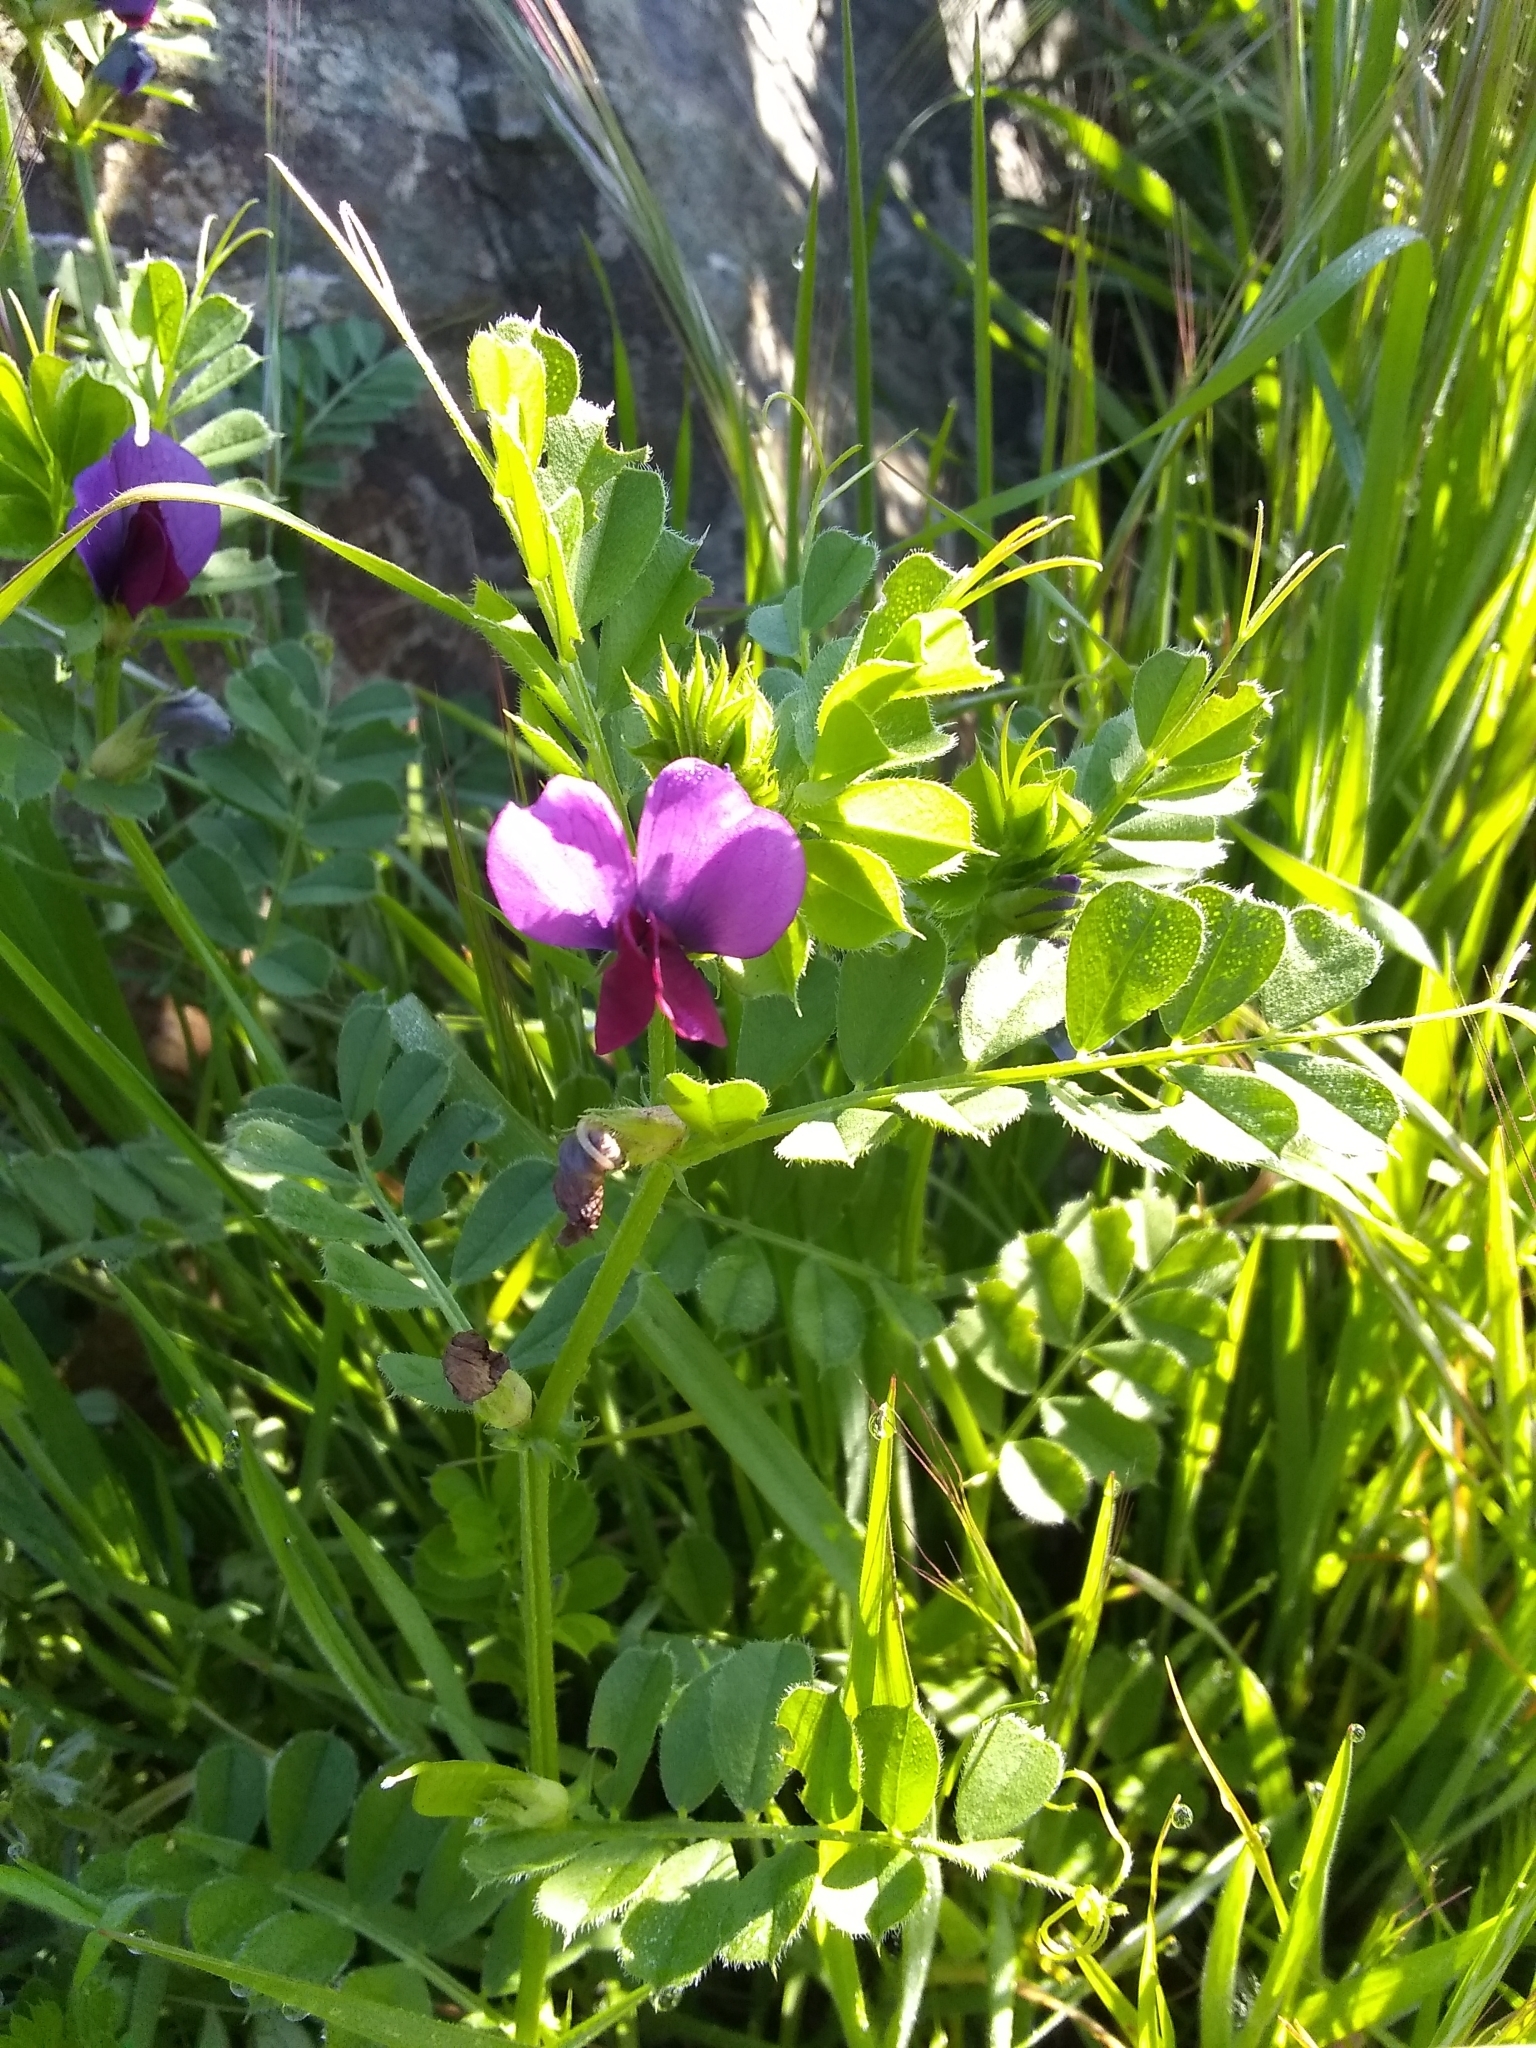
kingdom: Plantae
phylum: Tracheophyta
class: Magnoliopsida
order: Fabales
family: Fabaceae
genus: Vicia
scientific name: Vicia sativa
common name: Garden vetch
